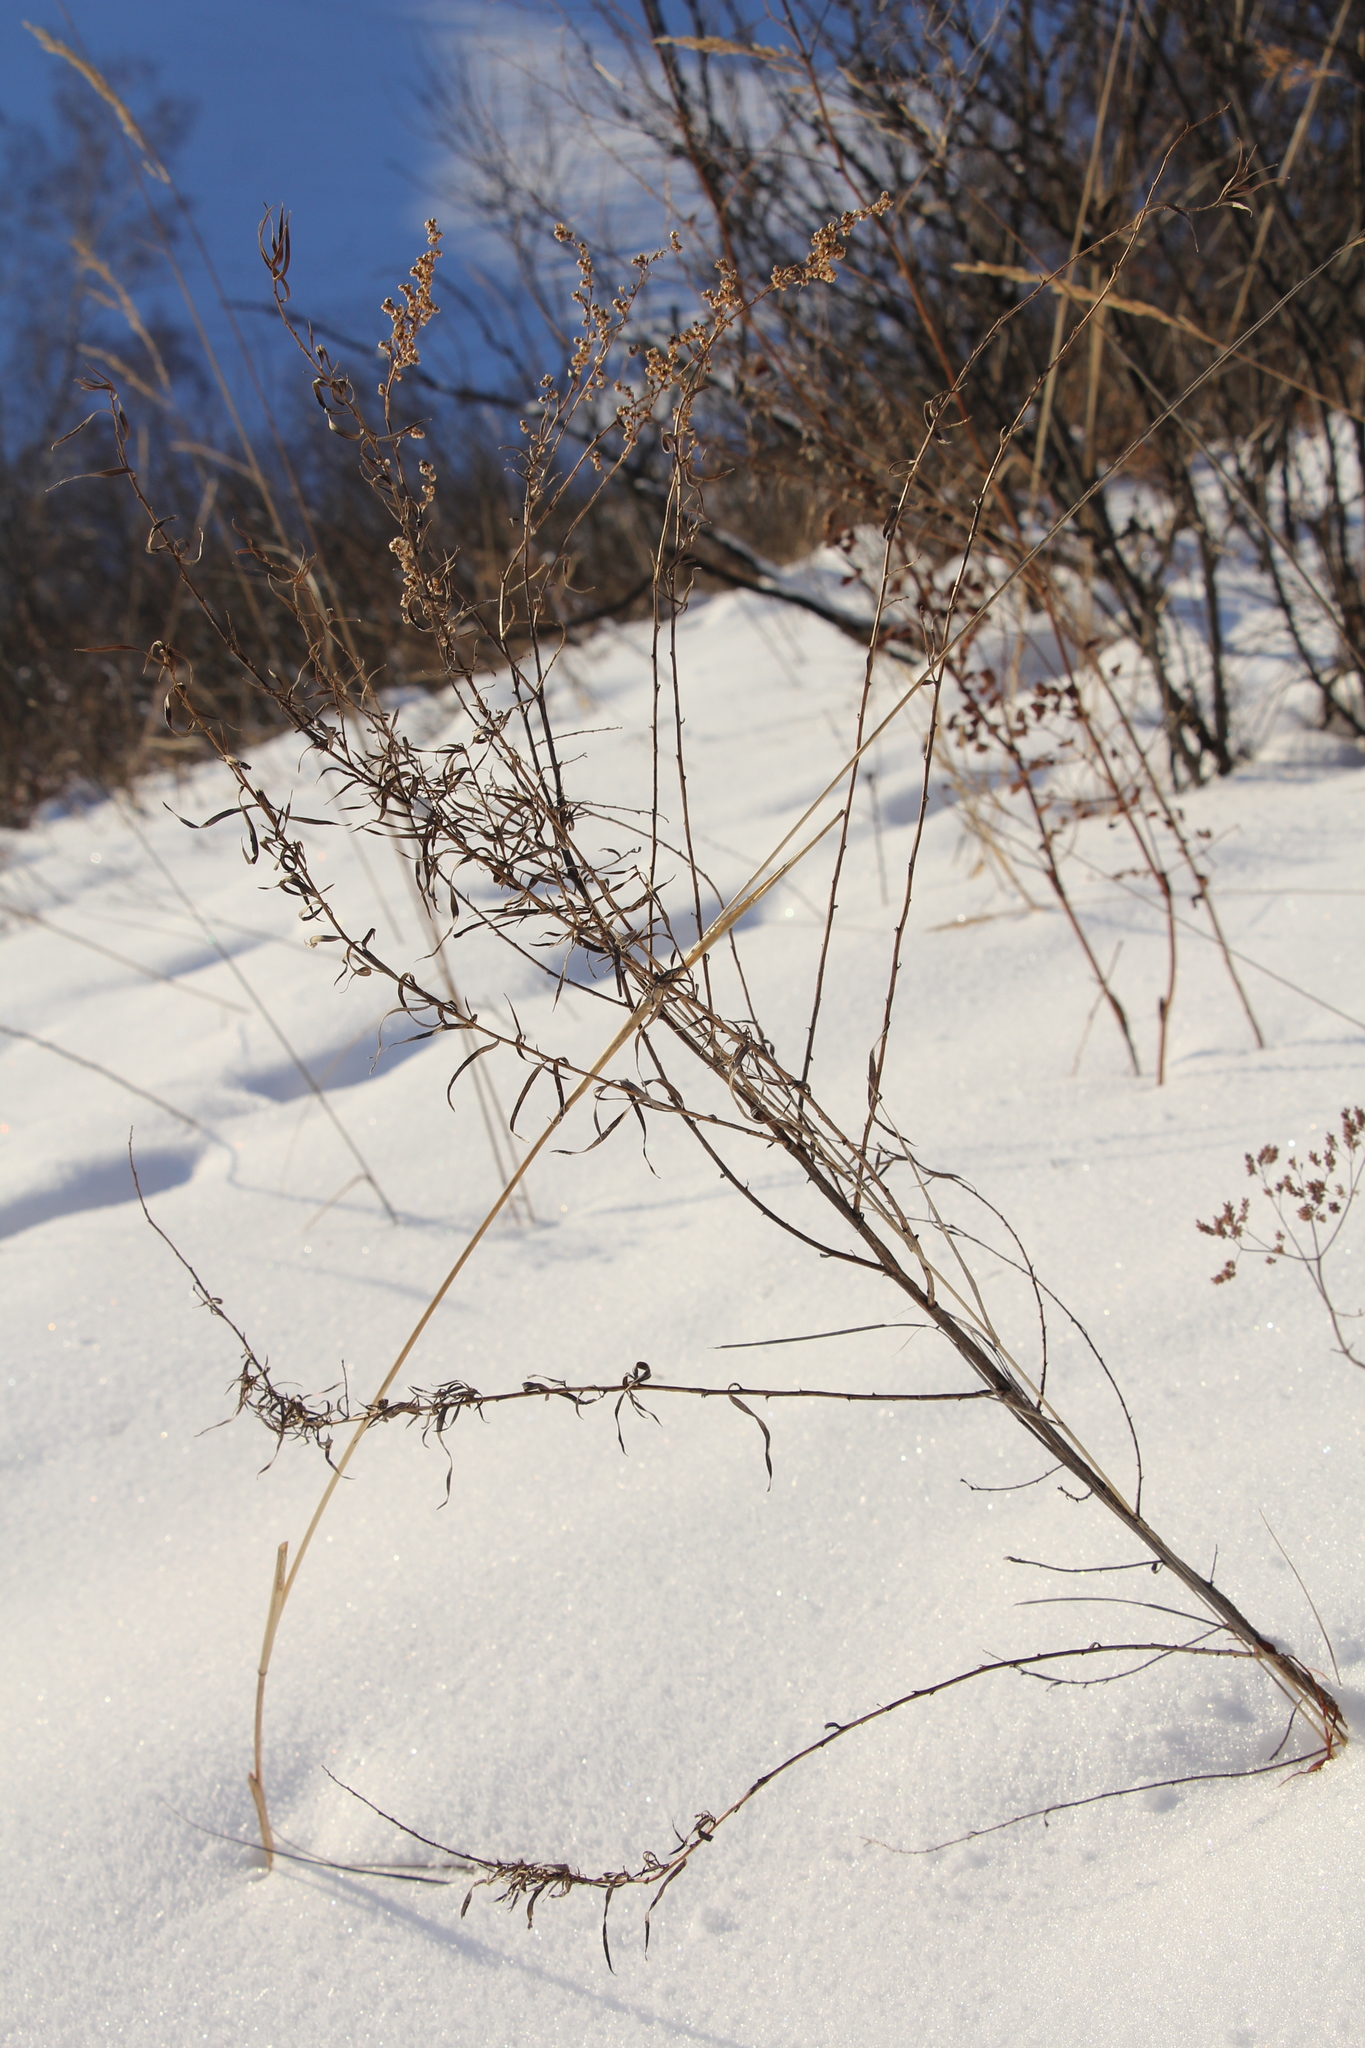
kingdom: Plantae
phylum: Tracheophyta
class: Magnoliopsida
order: Asterales
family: Asteraceae
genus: Artemisia
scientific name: Artemisia dracunculus
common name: Tarragon
